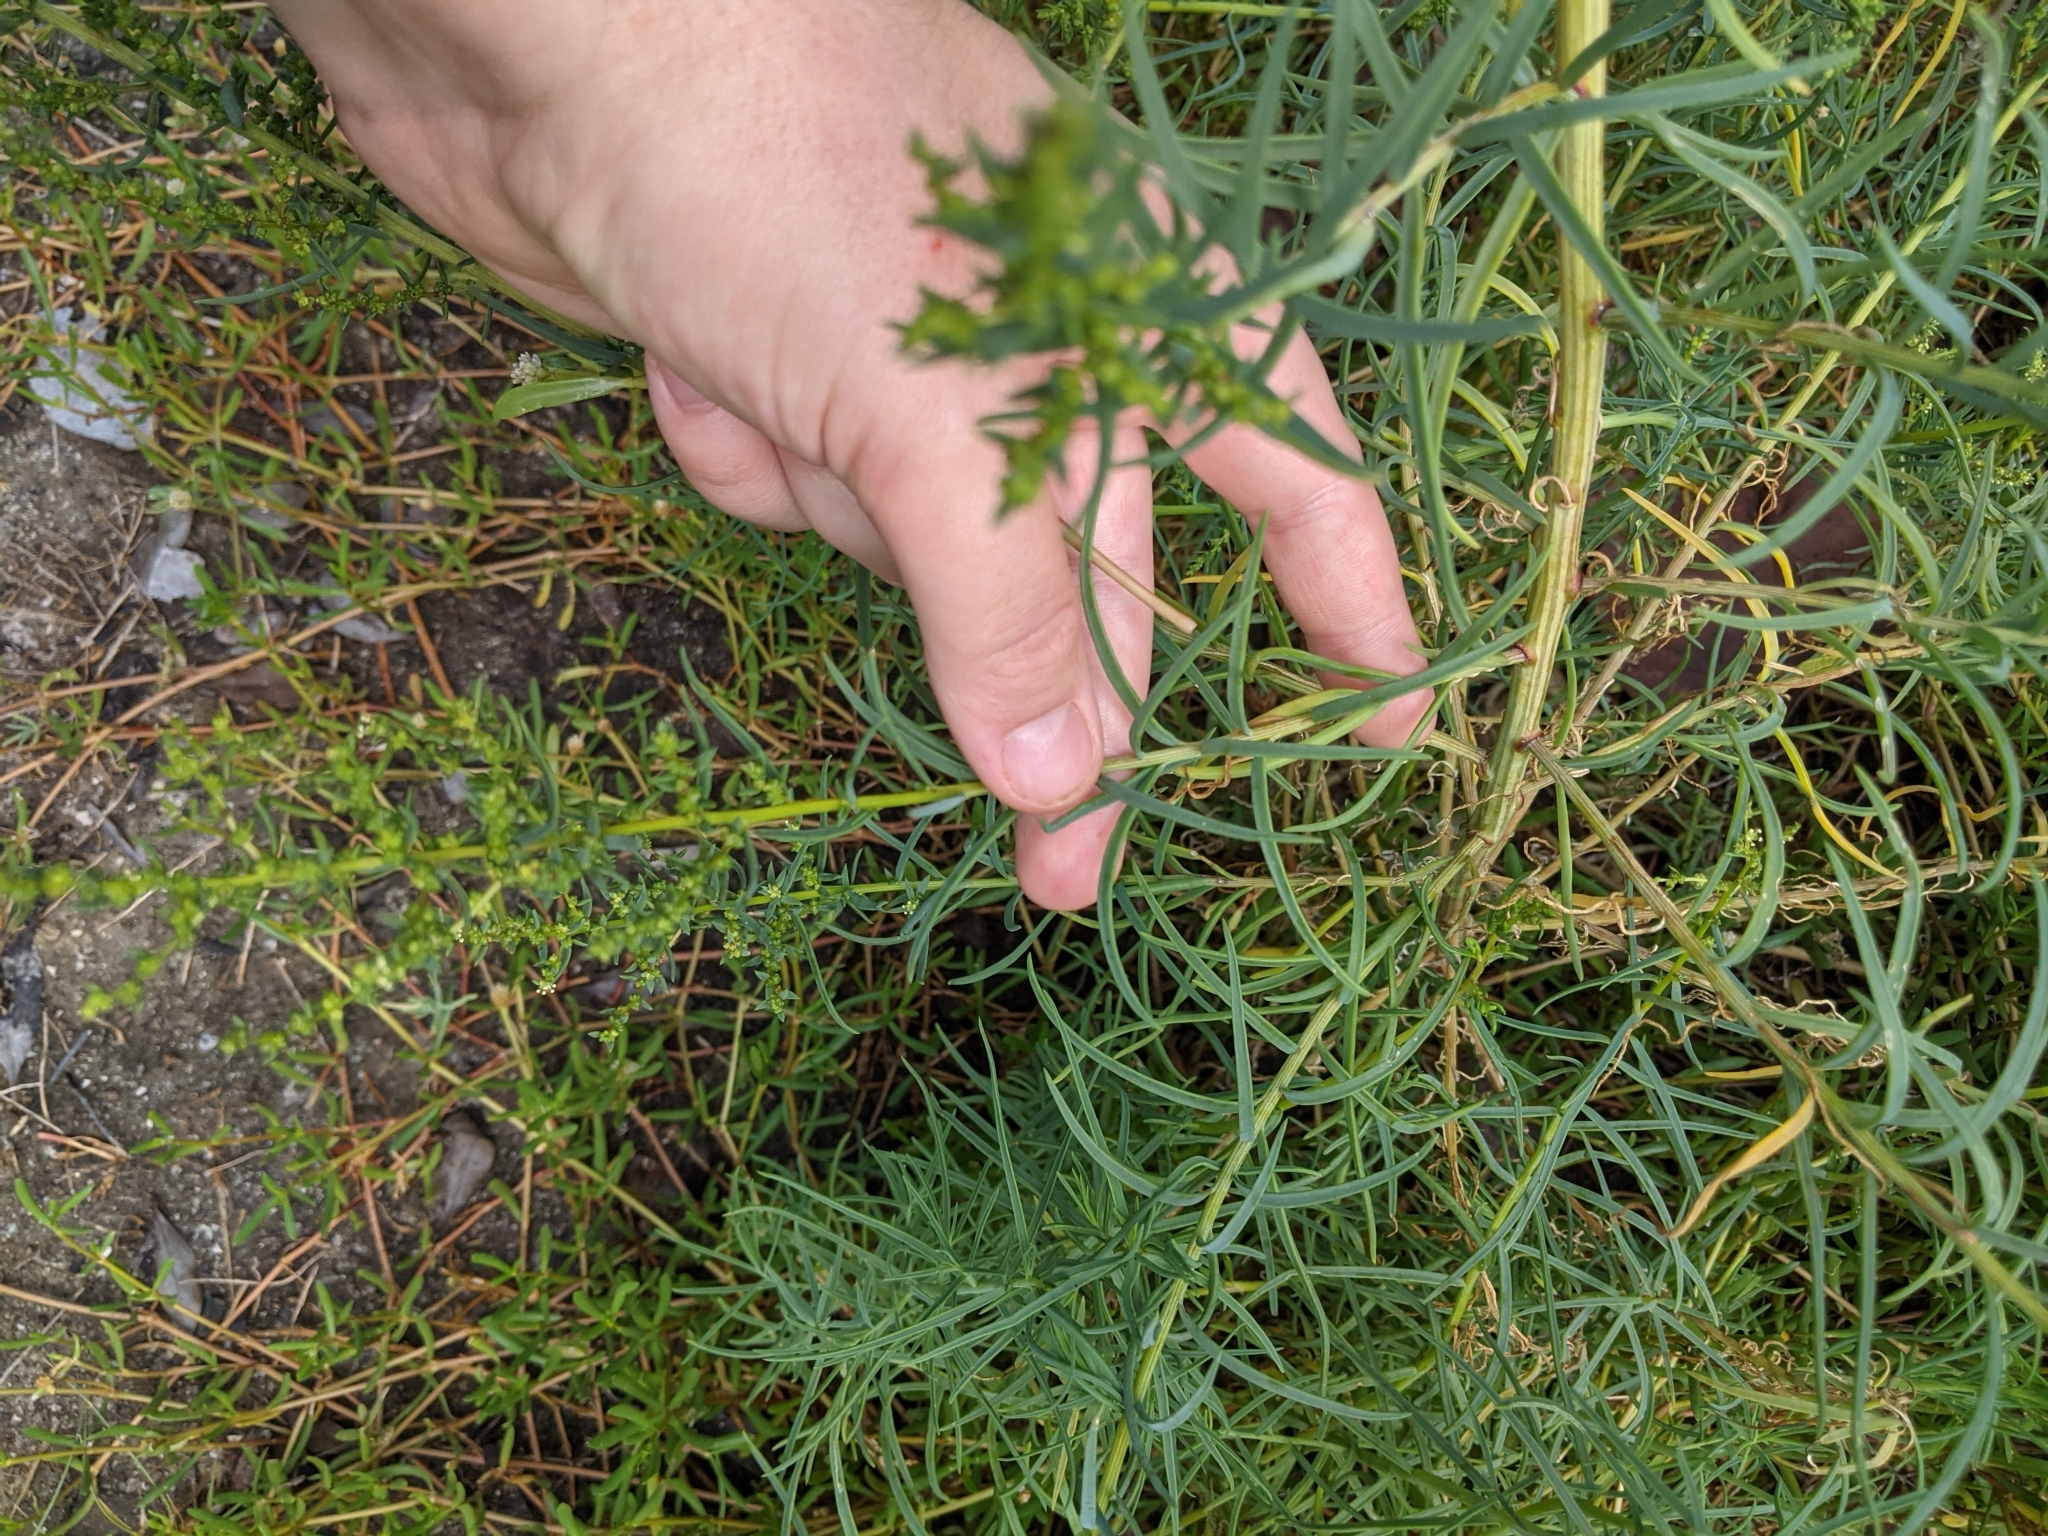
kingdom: Plantae
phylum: Tracheophyta
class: Magnoliopsida
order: Caryophyllales
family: Amaranthaceae
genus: Suaeda
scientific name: Suaeda linearis
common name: Annual seepweed
